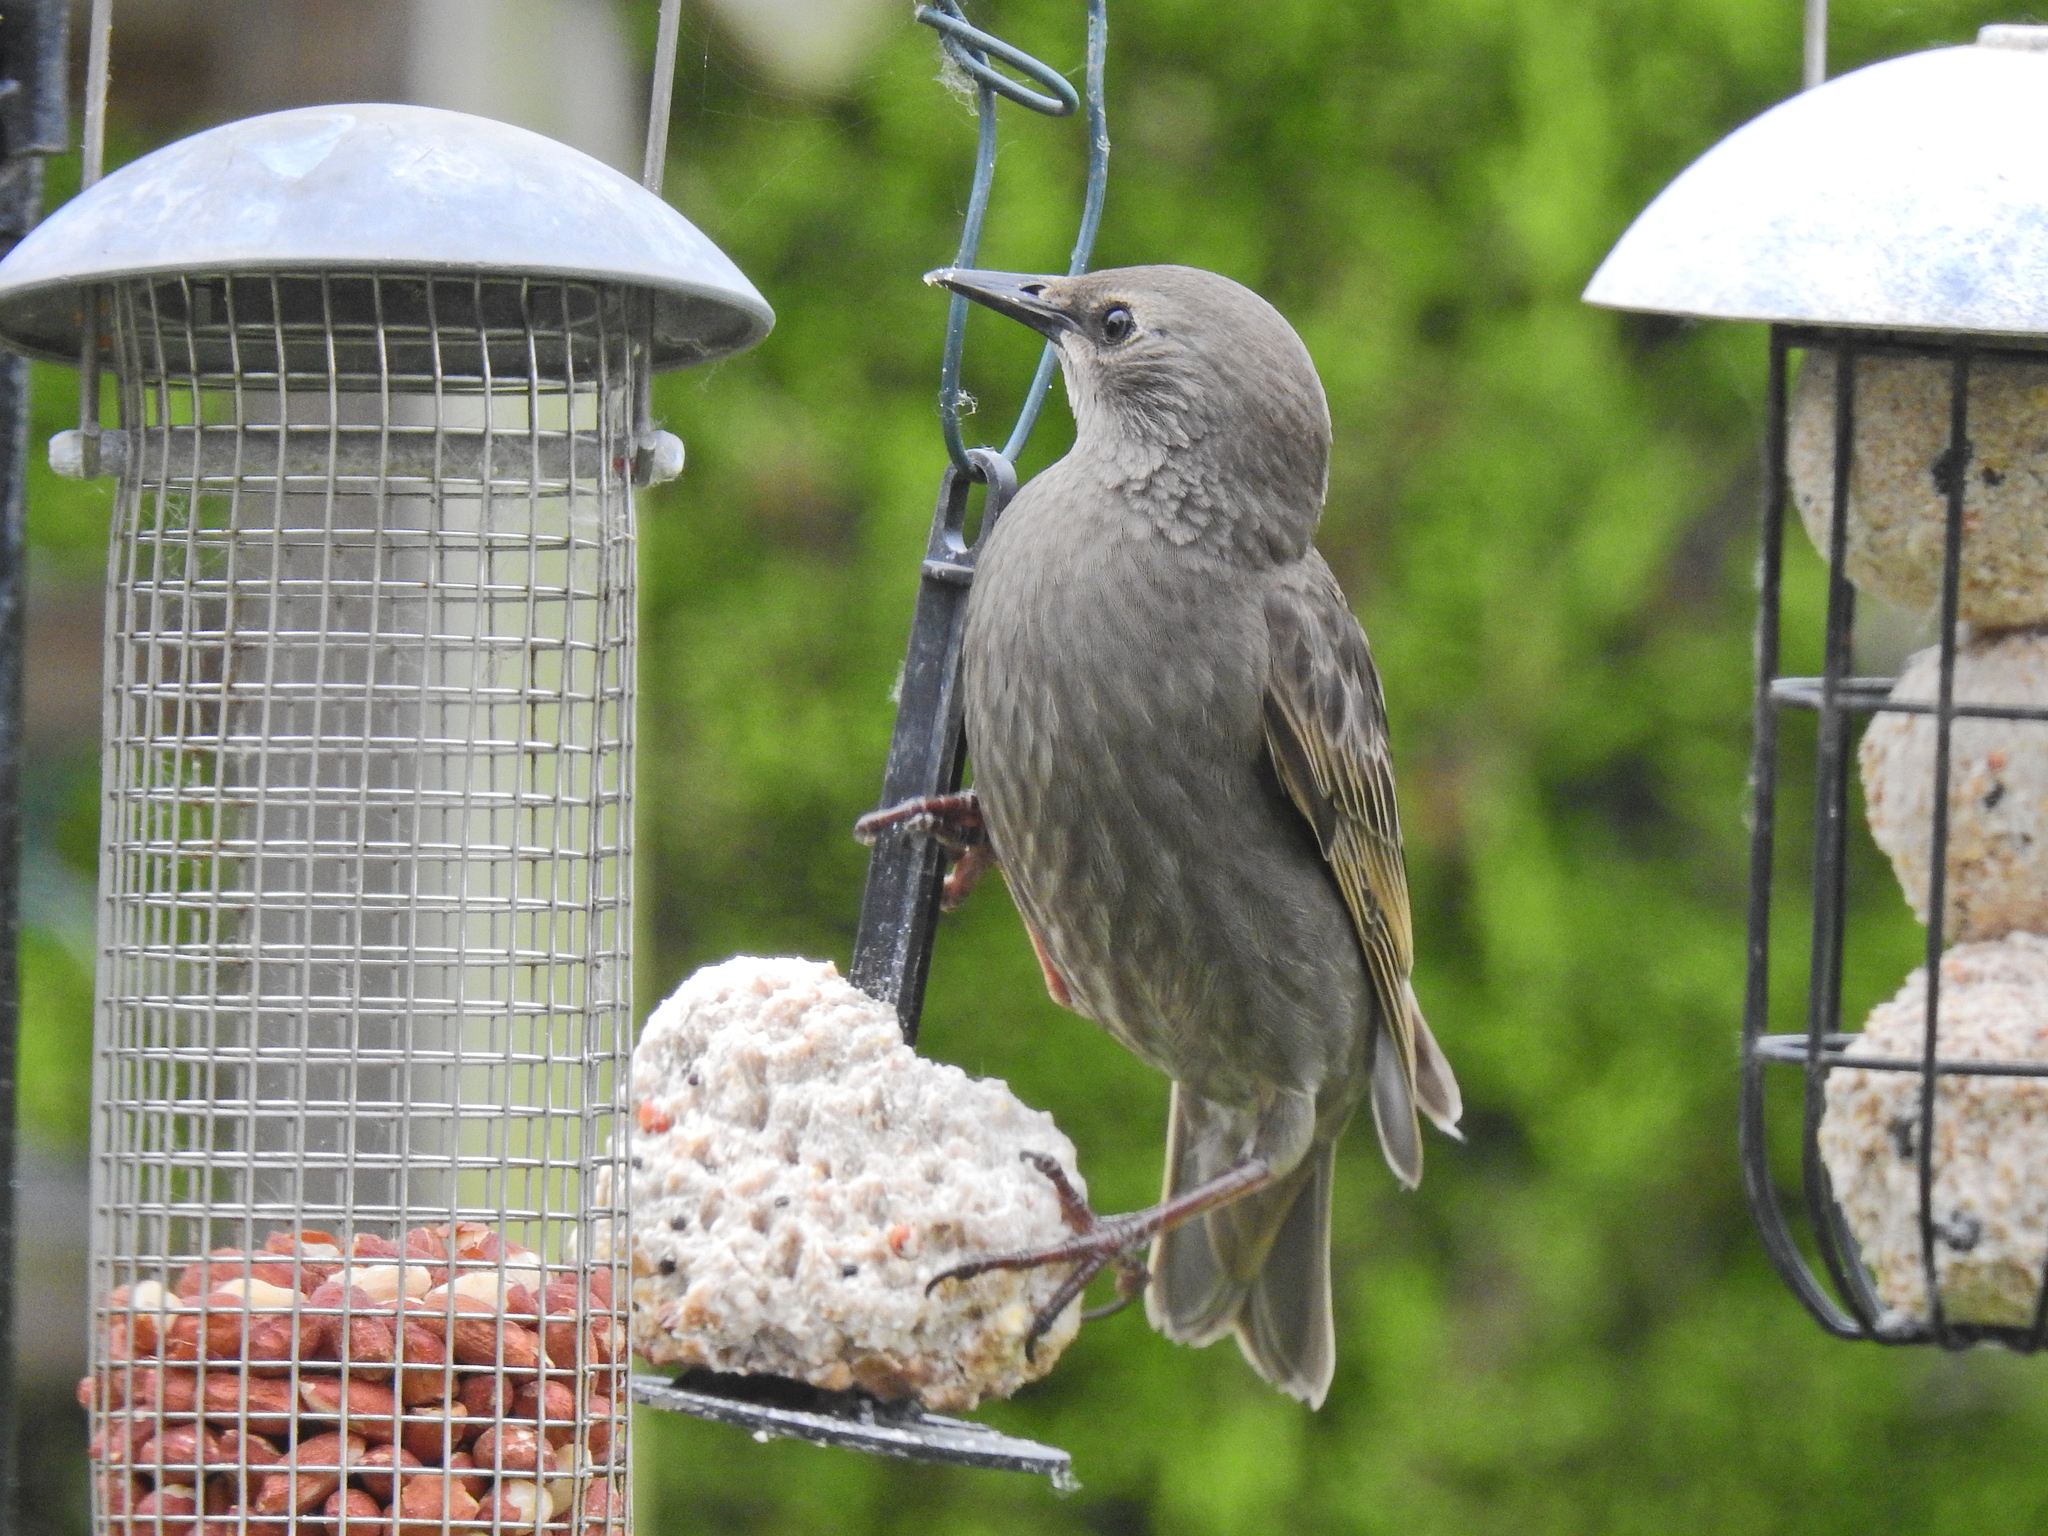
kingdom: Animalia
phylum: Chordata
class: Aves
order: Passeriformes
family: Sturnidae
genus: Sturnus
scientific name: Sturnus vulgaris
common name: Common starling
